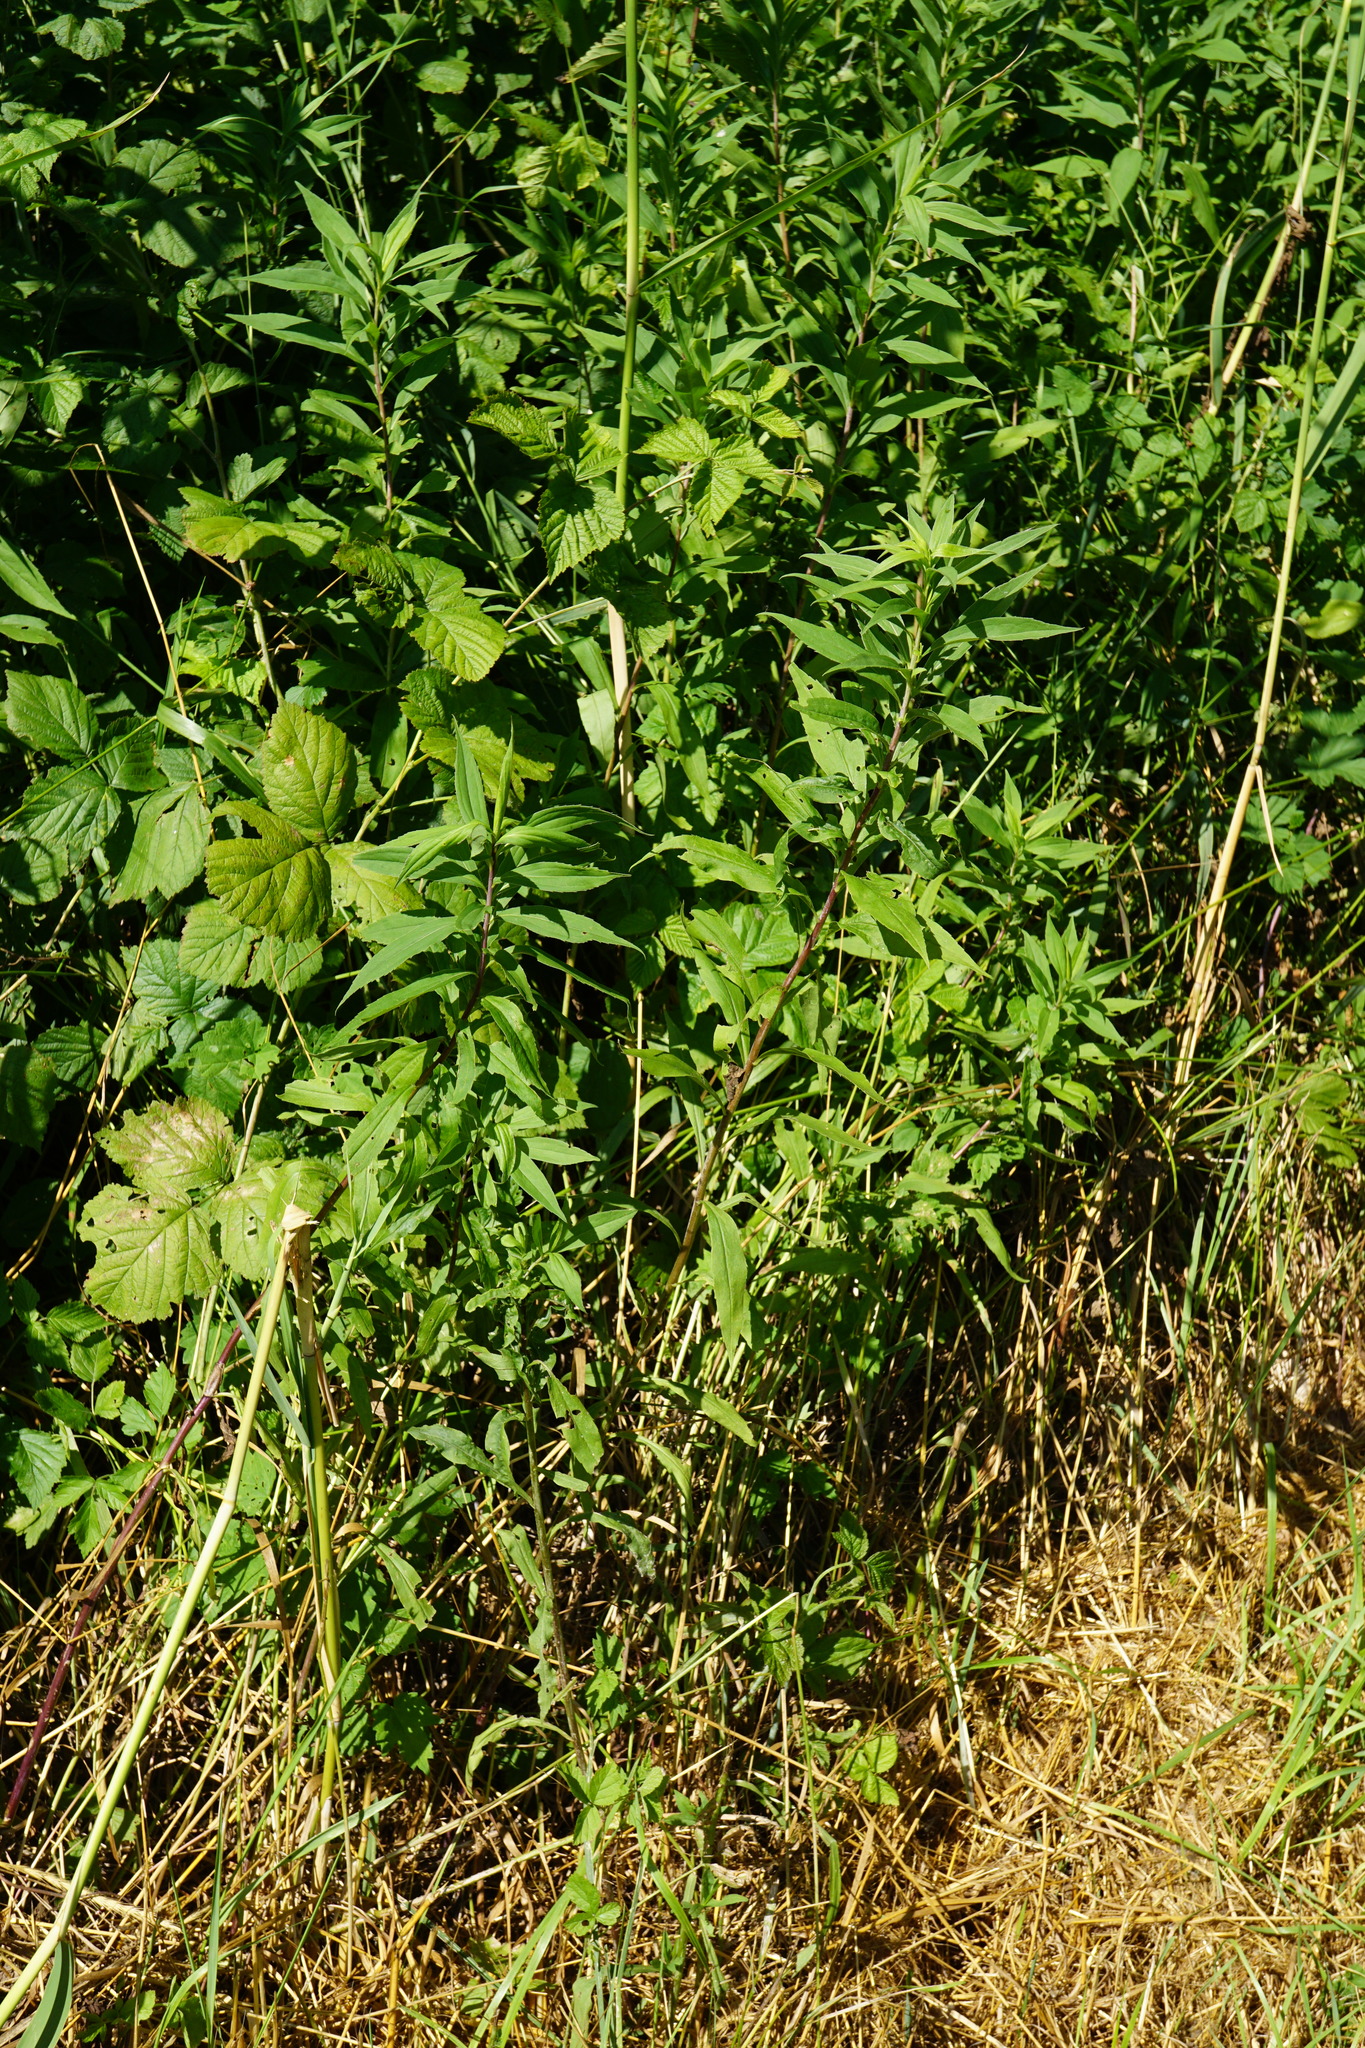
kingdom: Plantae
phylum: Tracheophyta
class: Magnoliopsida
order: Asterales
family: Asteraceae
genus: Solidago
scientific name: Solidago gigantea
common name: Giant goldenrod
